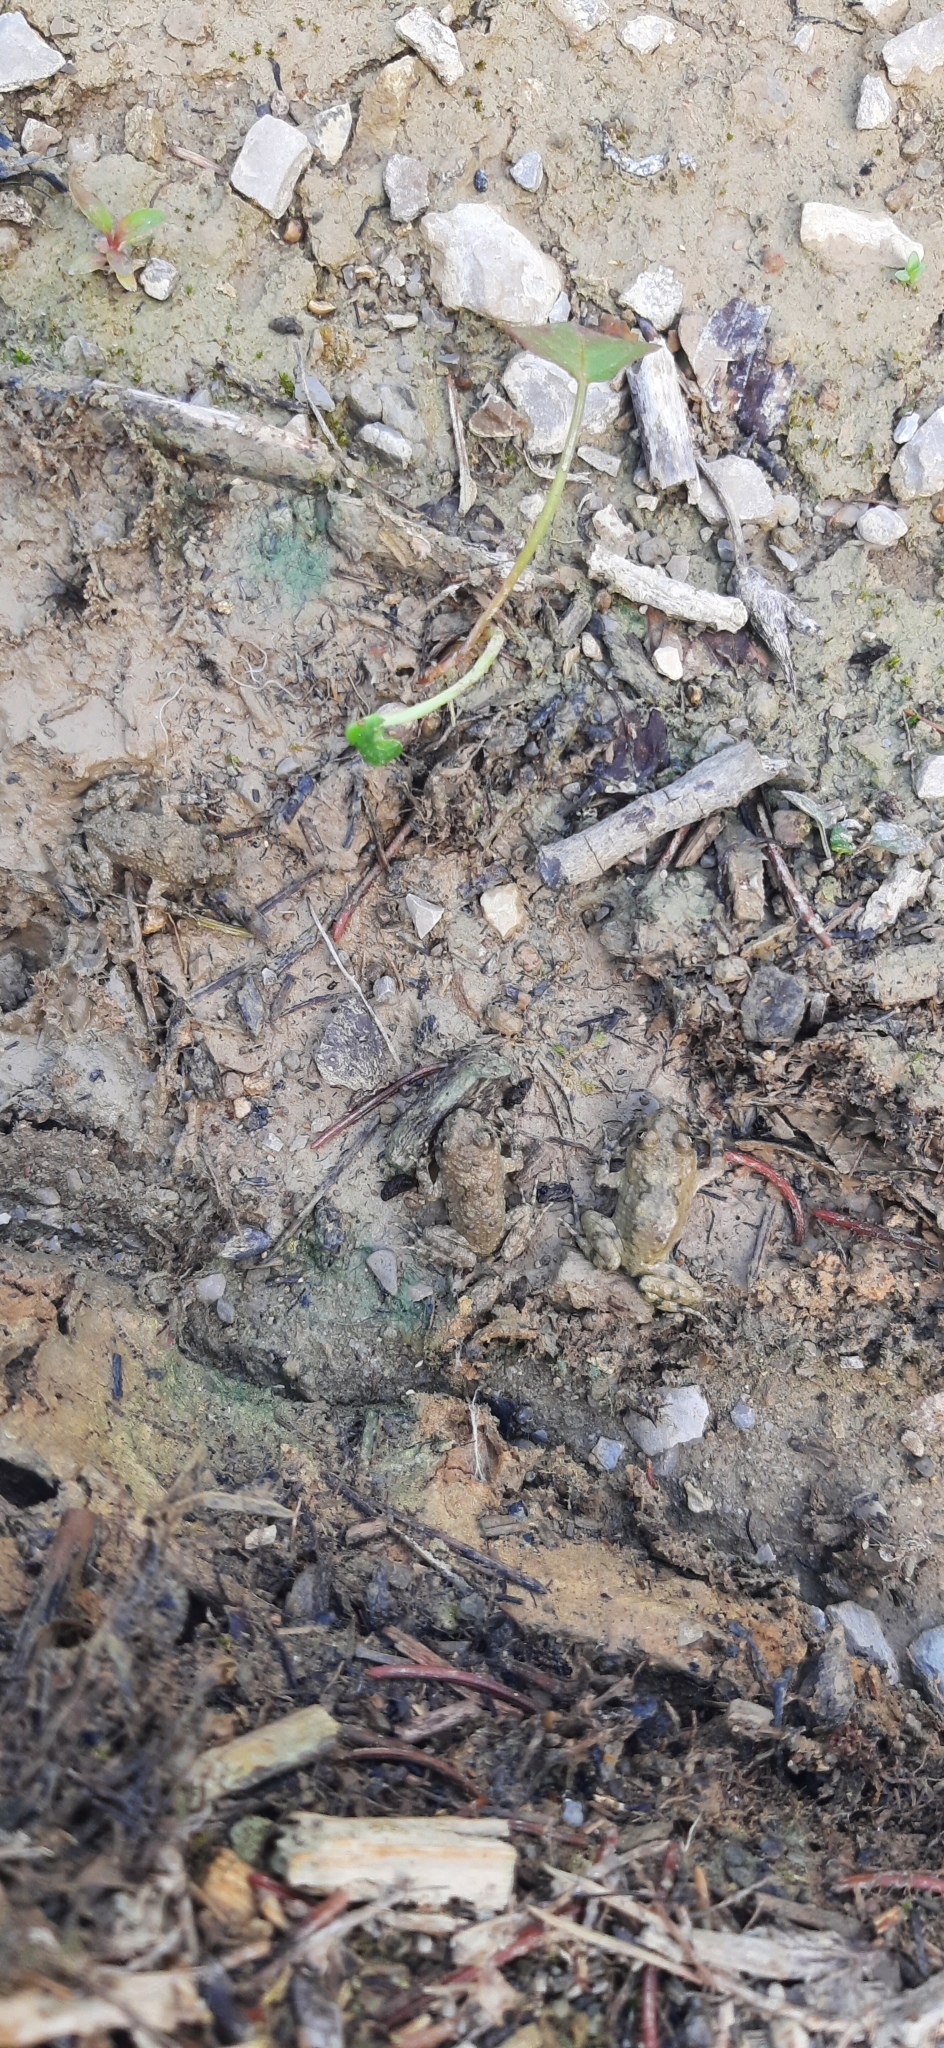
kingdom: Animalia
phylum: Chordata
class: Amphibia
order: Anura
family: Bombinatoridae
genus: Bombina
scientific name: Bombina variegata
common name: Yellow-bellied toad
